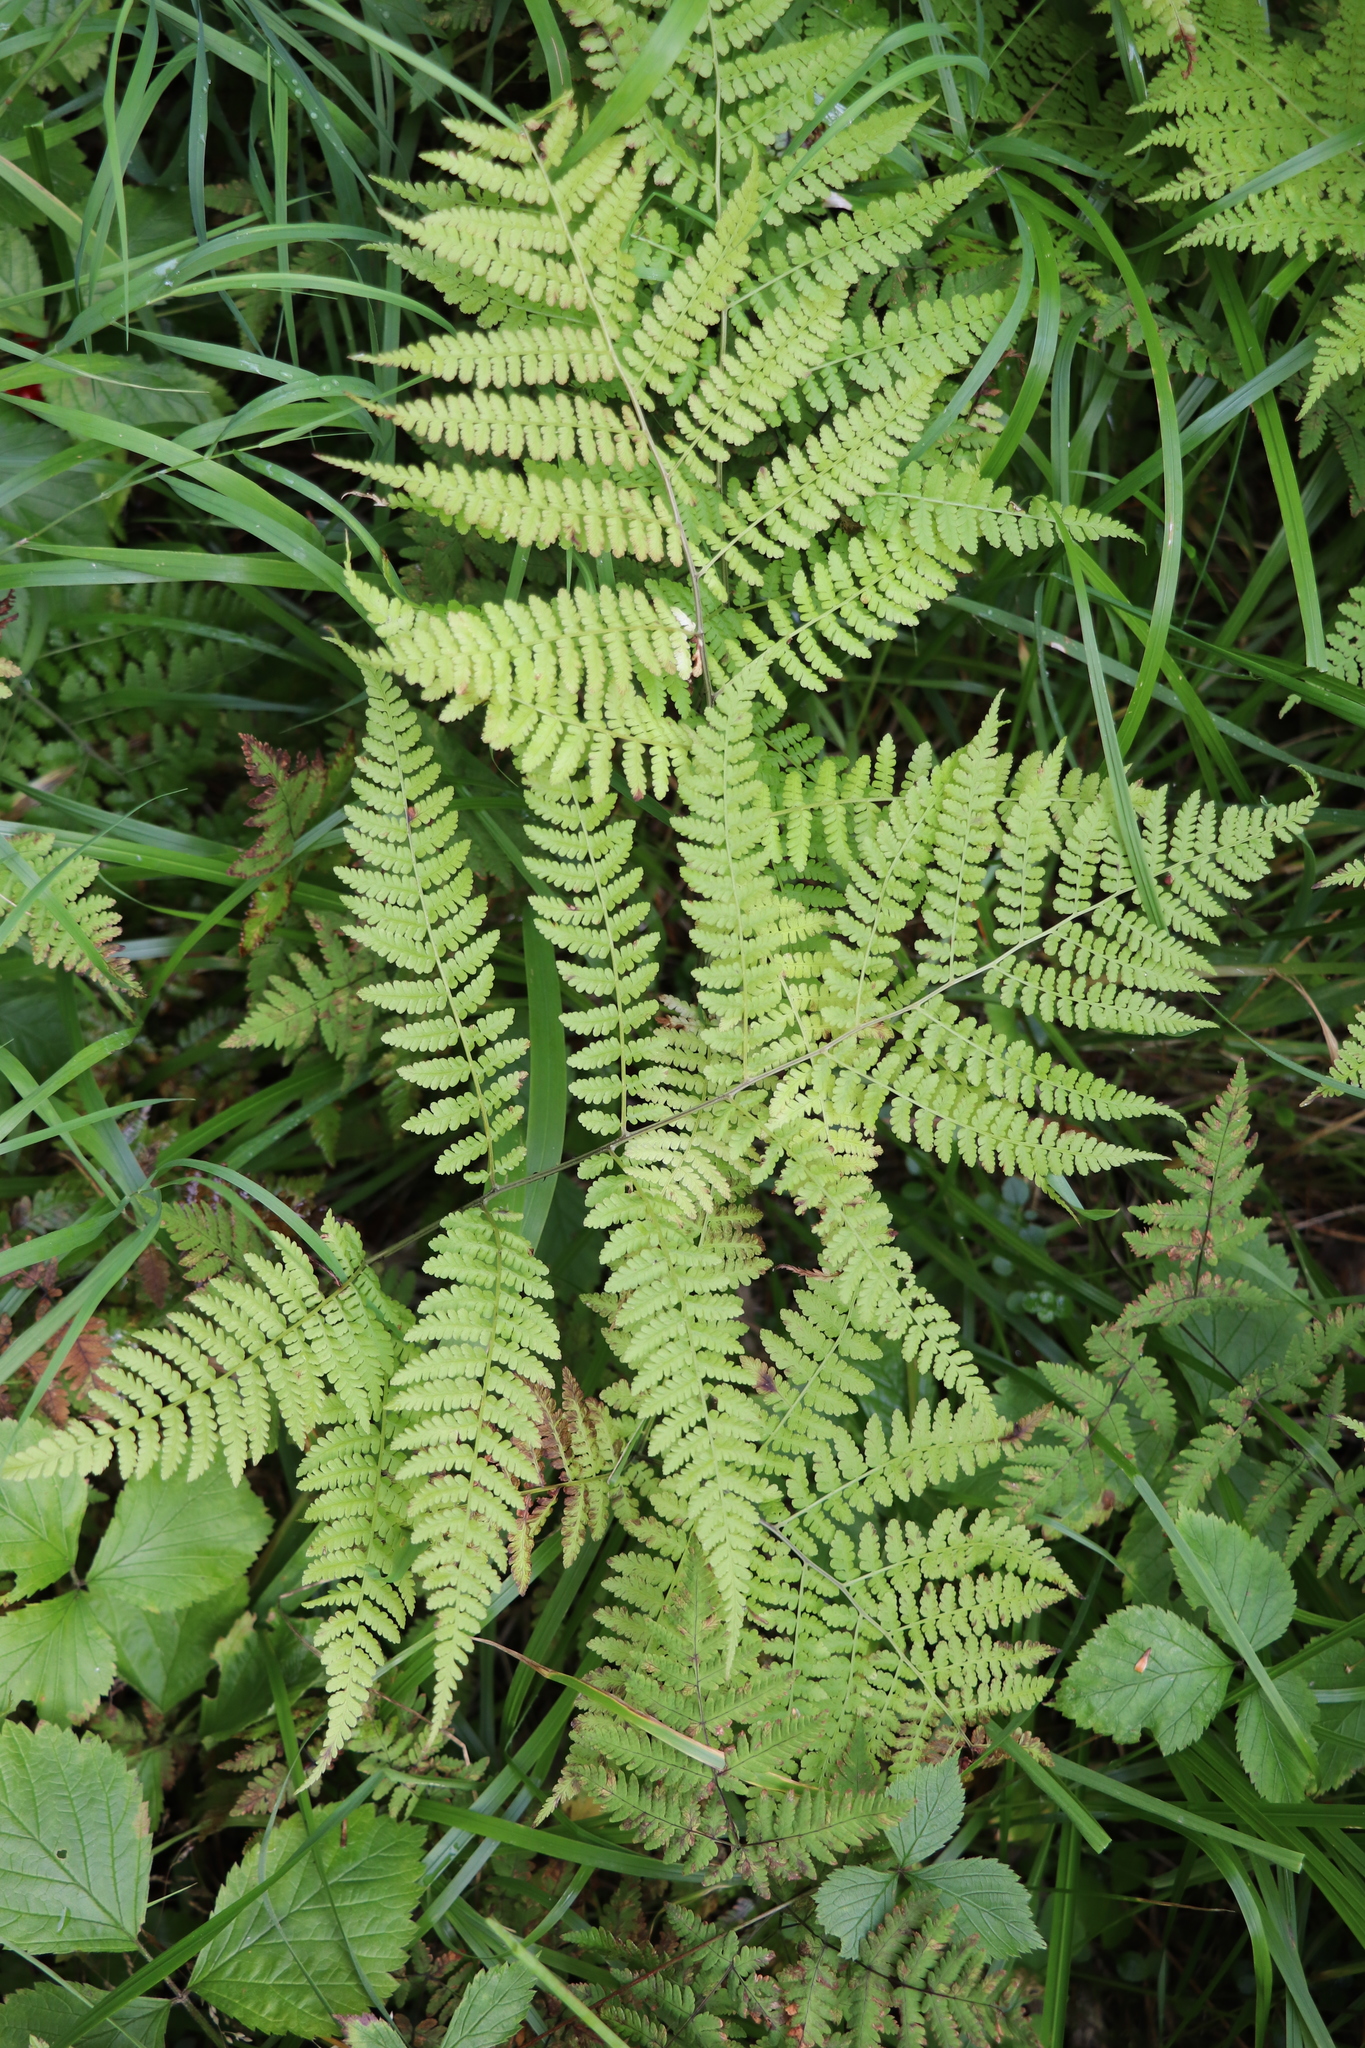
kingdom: Plantae
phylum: Tracheophyta
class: Polypodiopsida
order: Polypodiales
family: Athyriaceae
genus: Diplazium
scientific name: Diplazium sibiricum
